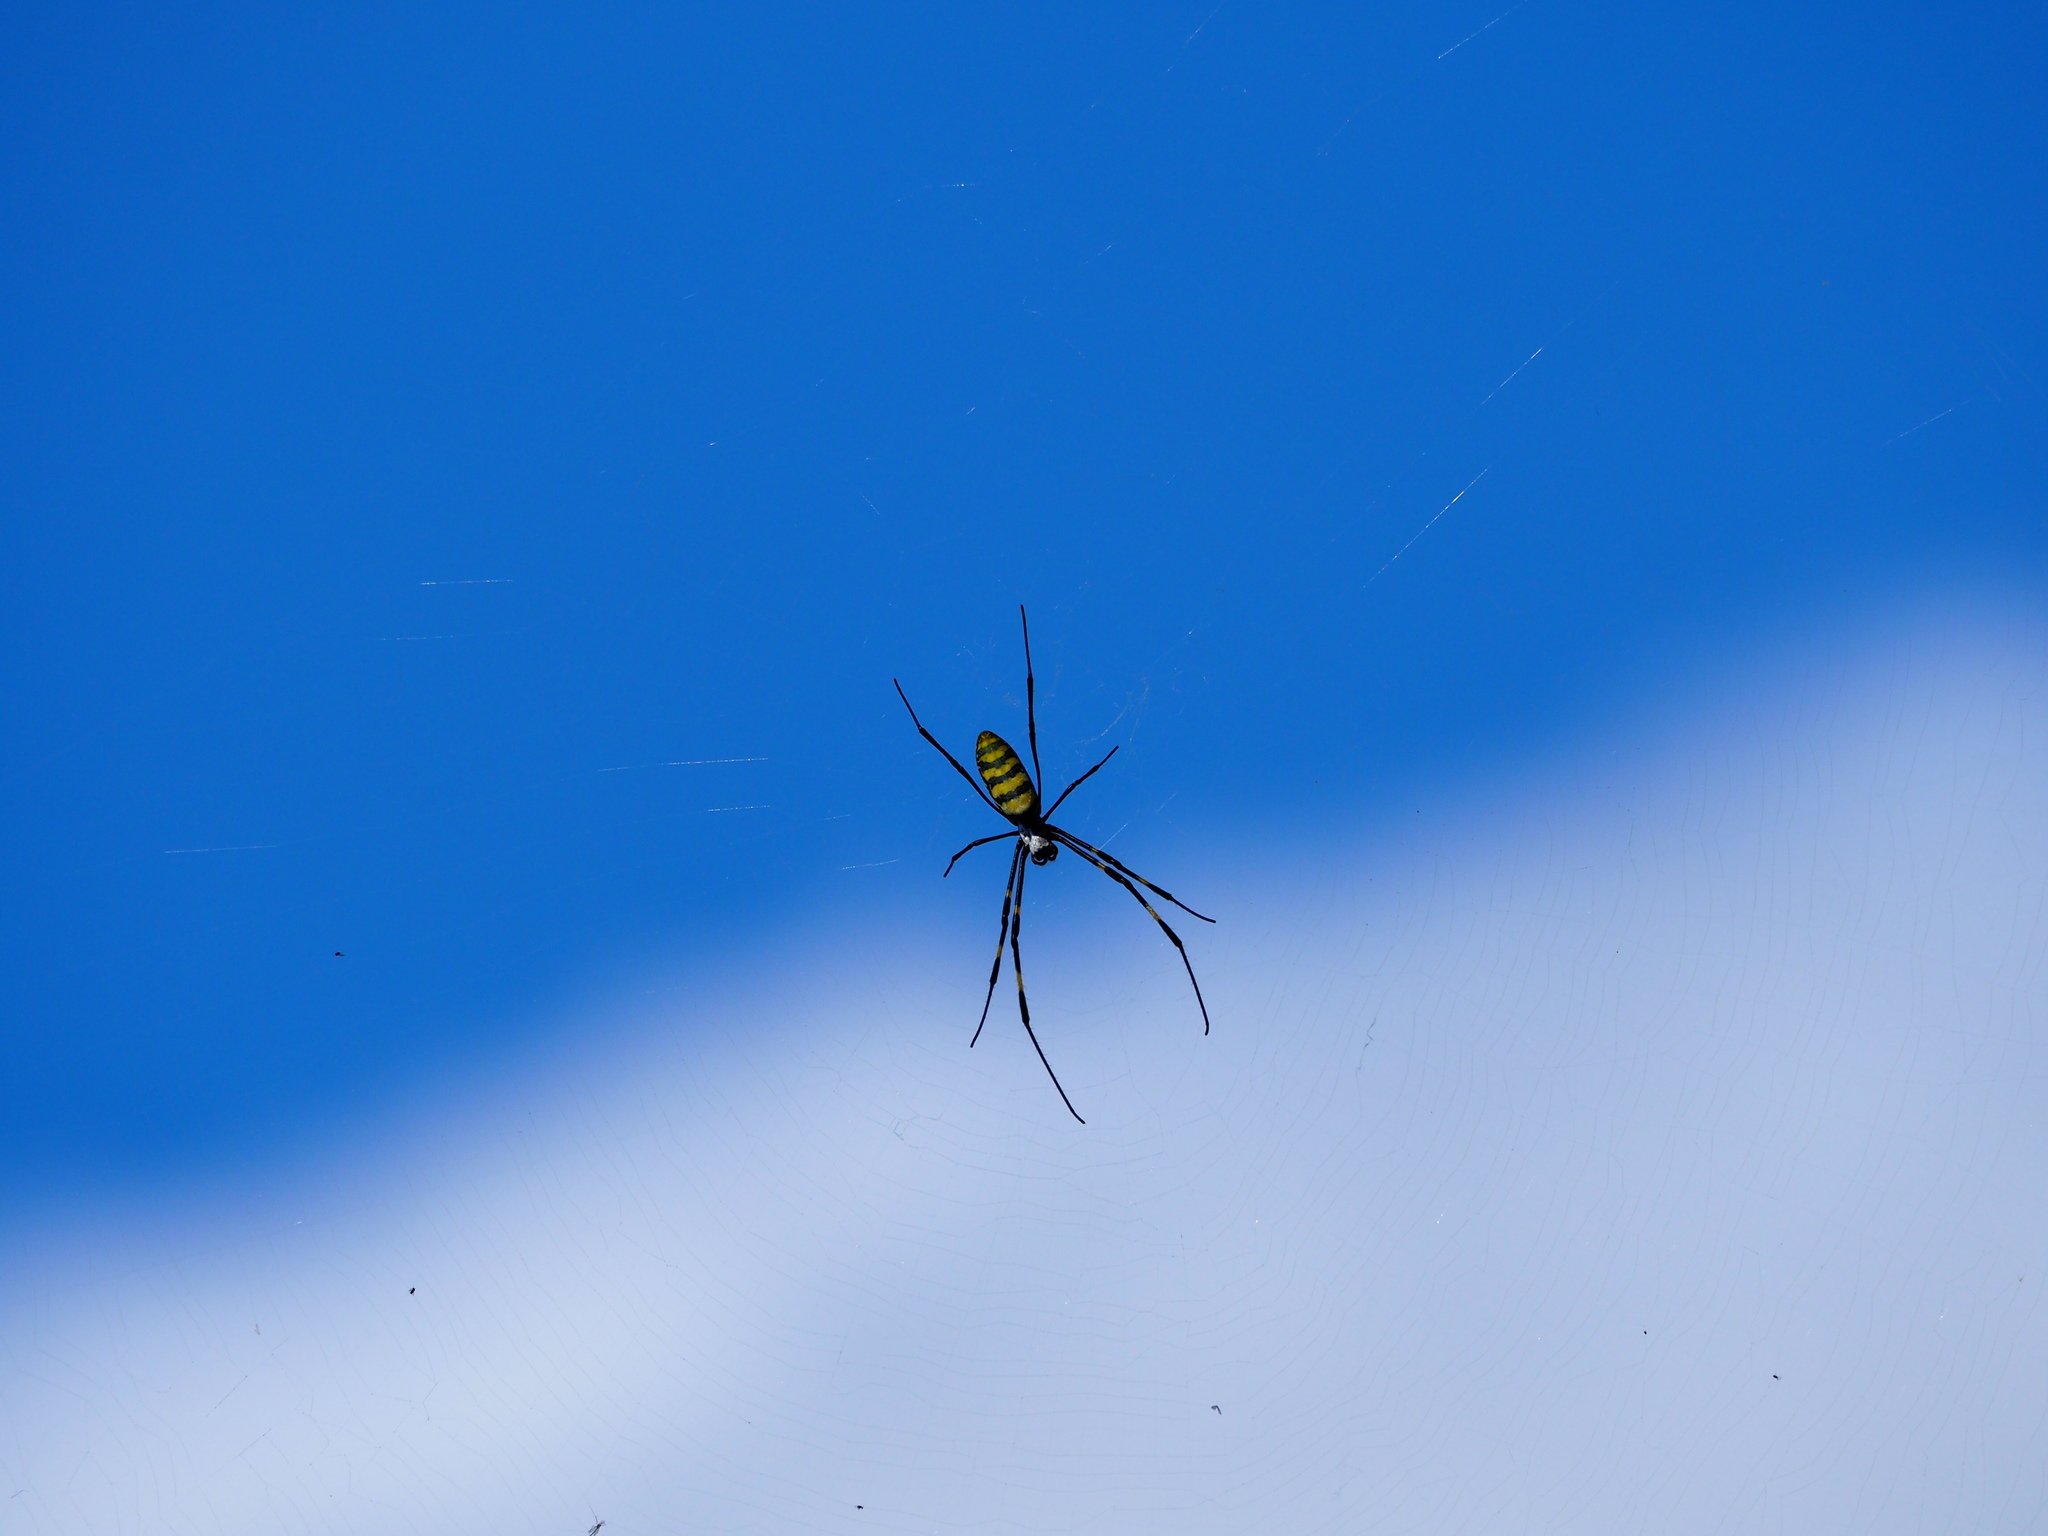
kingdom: Animalia
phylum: Arthropoda
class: Arachnida
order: Araneae
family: Araneidae
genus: Trichonephila
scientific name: Trichonephila clavata
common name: Jorō spider
